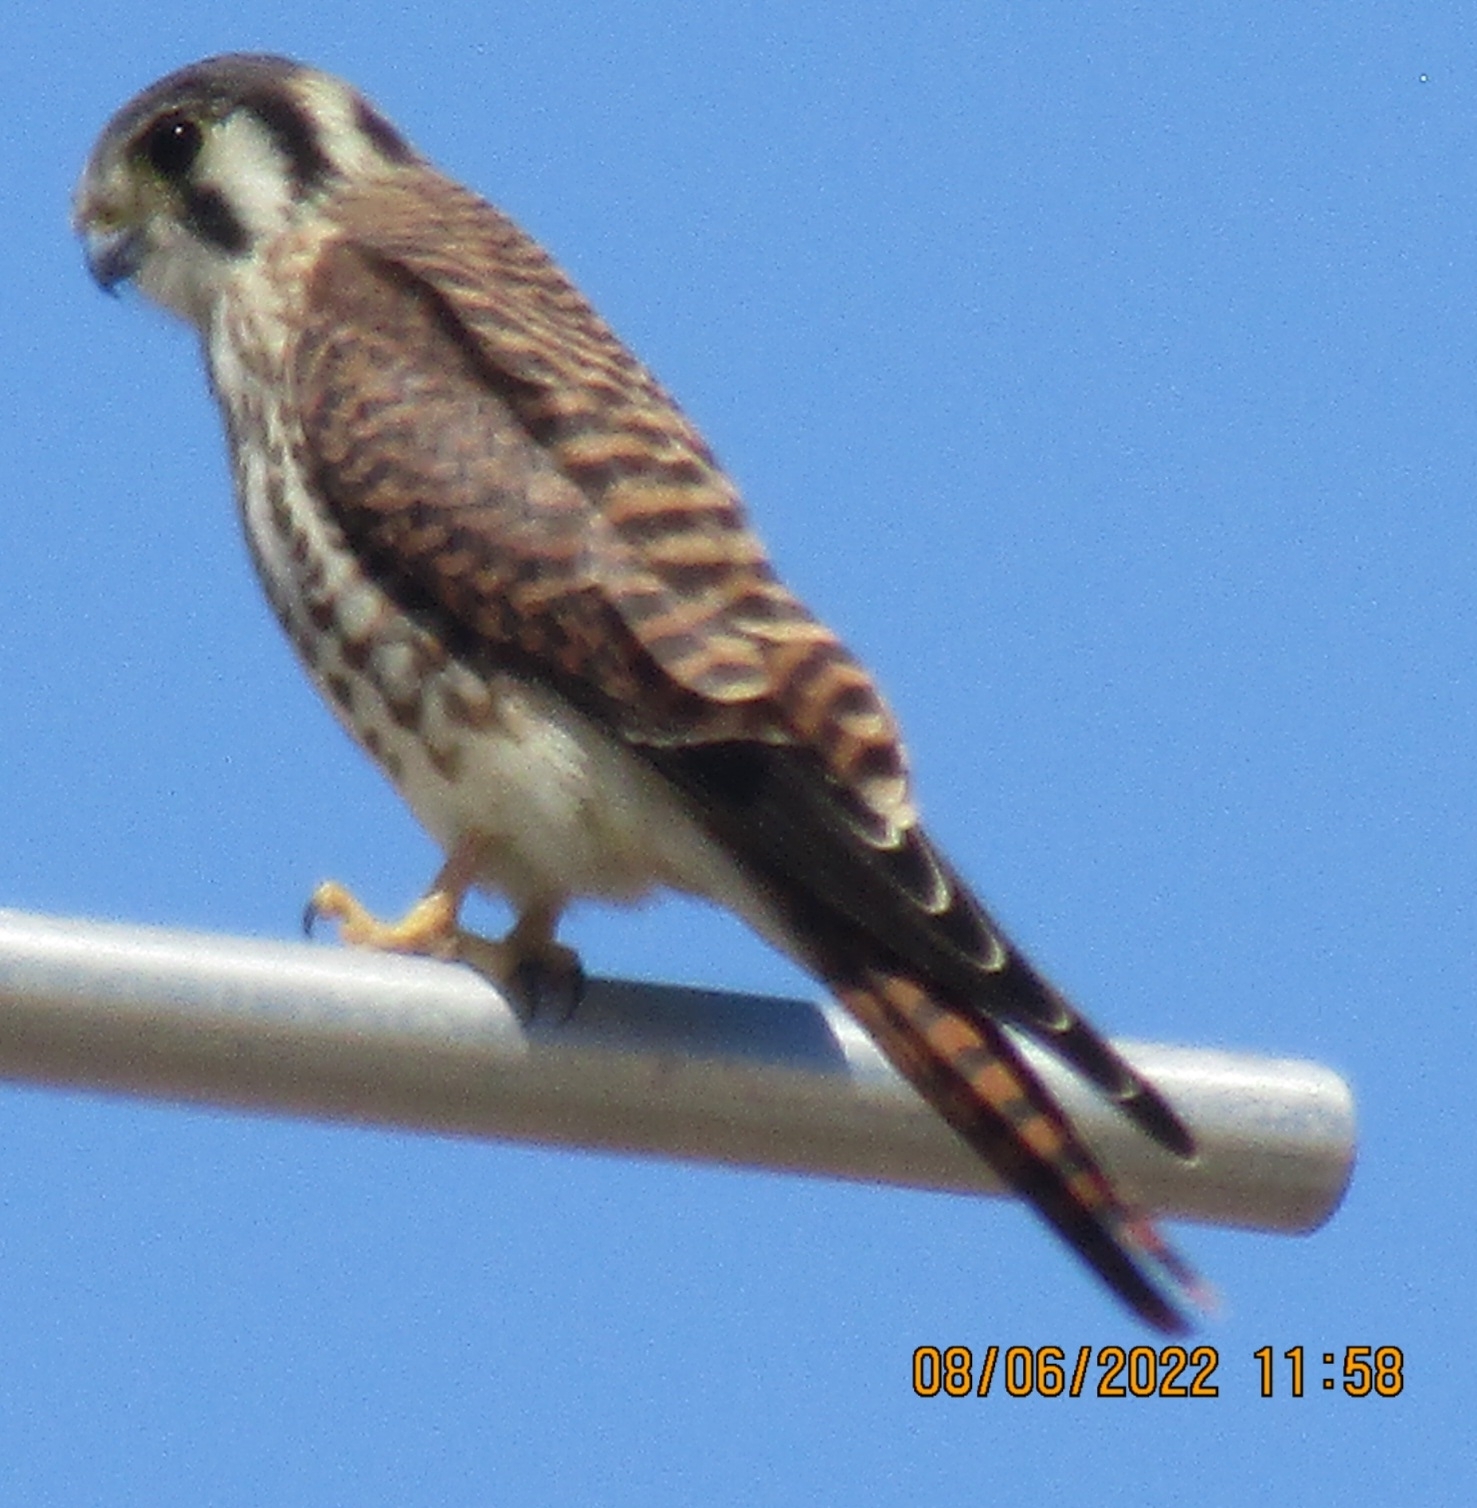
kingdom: Animalia
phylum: Chordata
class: Aves
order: Falconiformes
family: Falconidae
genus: Falco
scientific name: Falco sparverius
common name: American kestrel
